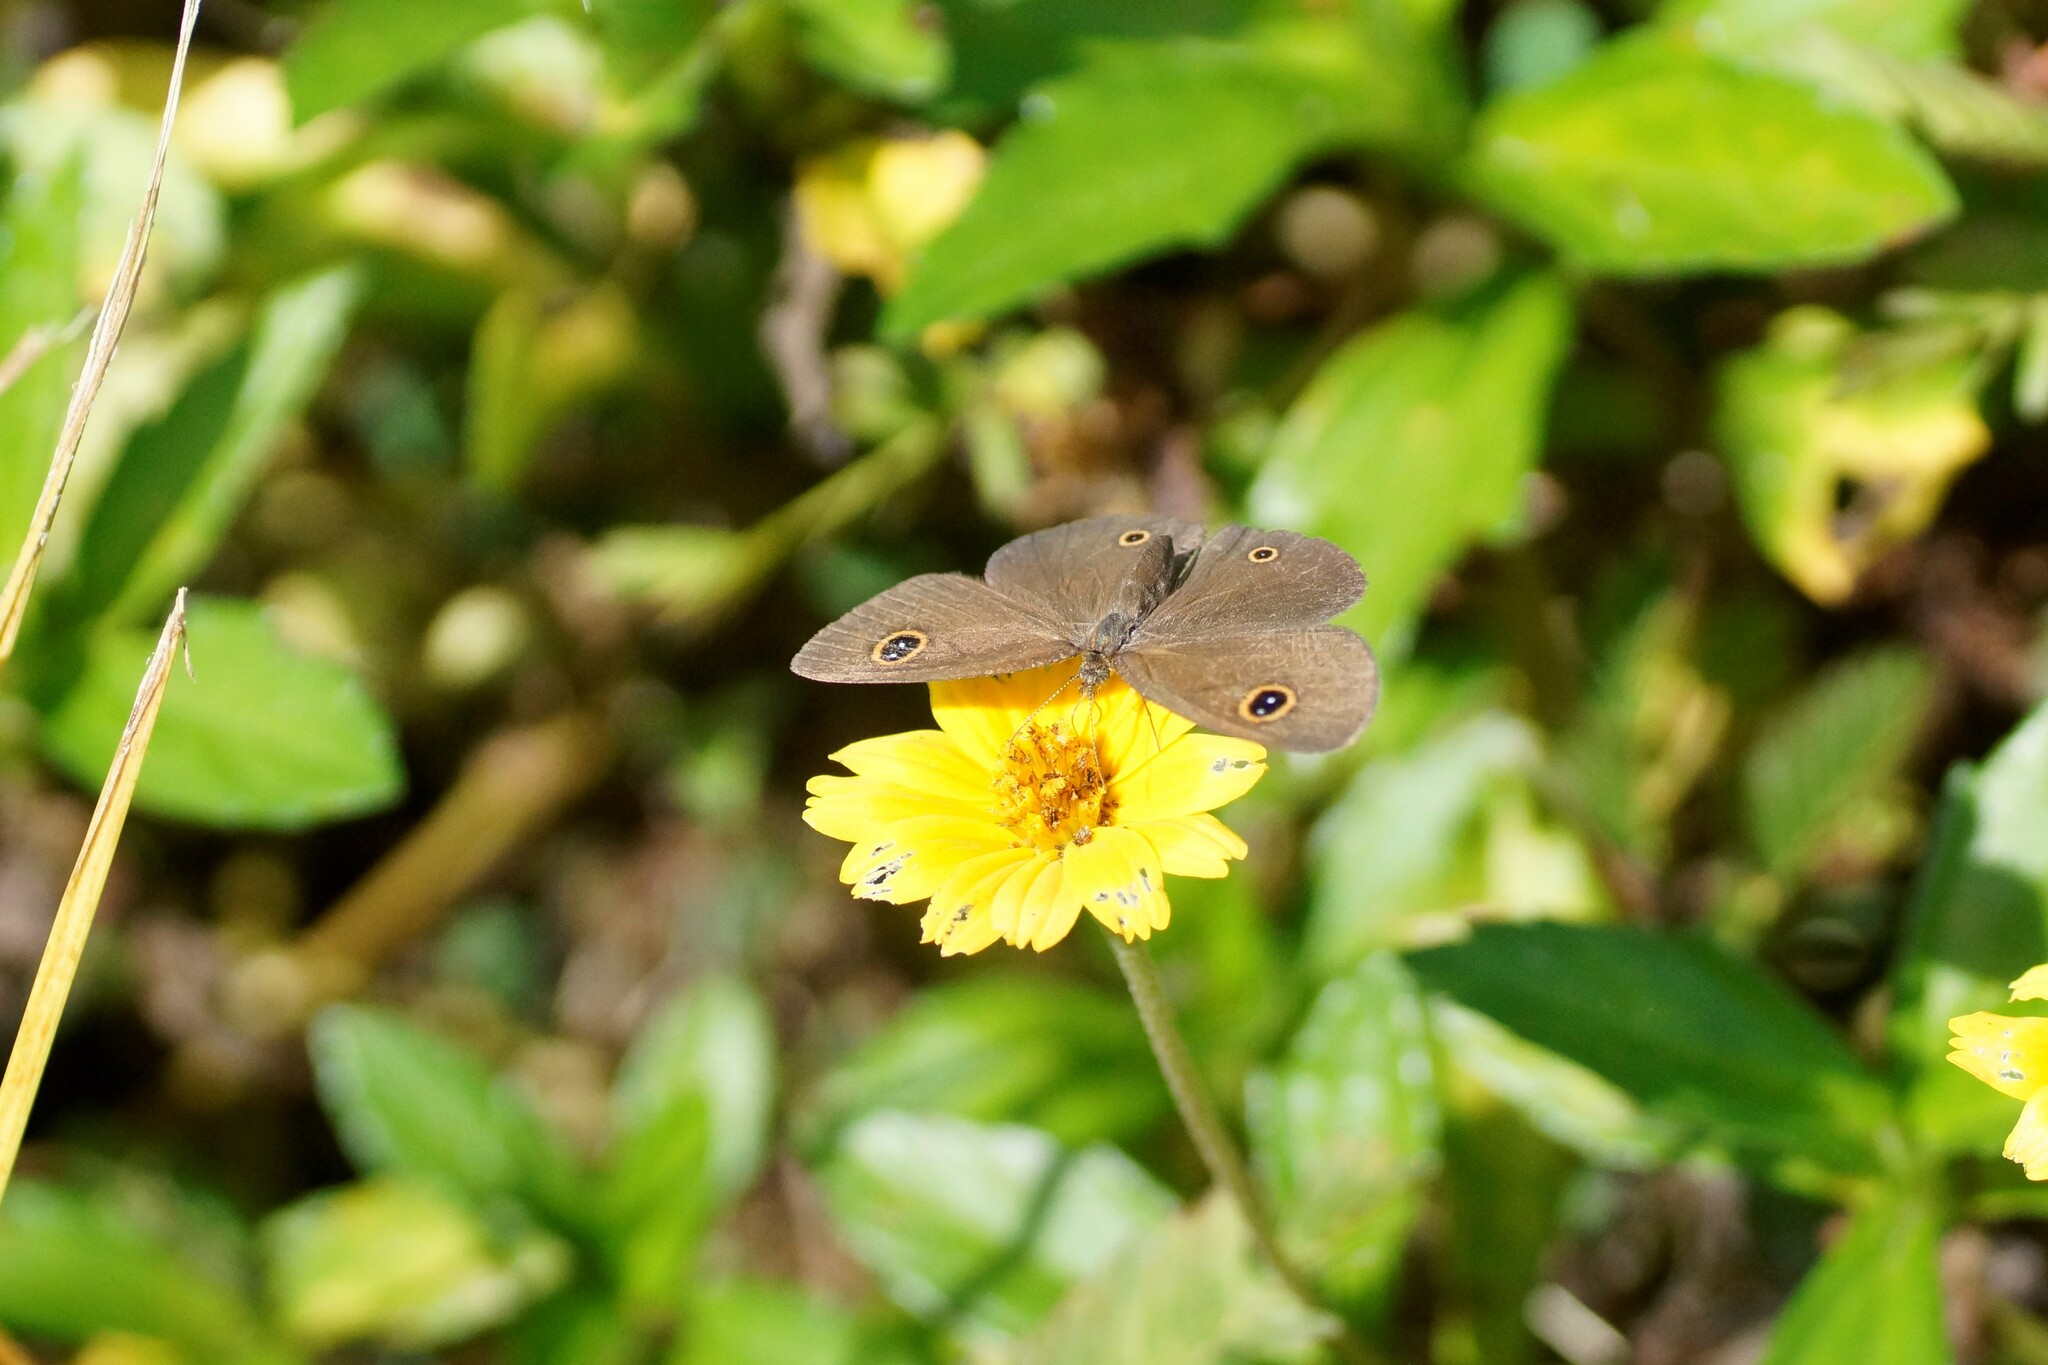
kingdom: Animalia
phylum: Arthropoda
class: Insecta
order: Lepidoptera
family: Nymphalidae
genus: Ypthima
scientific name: Ypthima arctous
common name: Dusky knight
